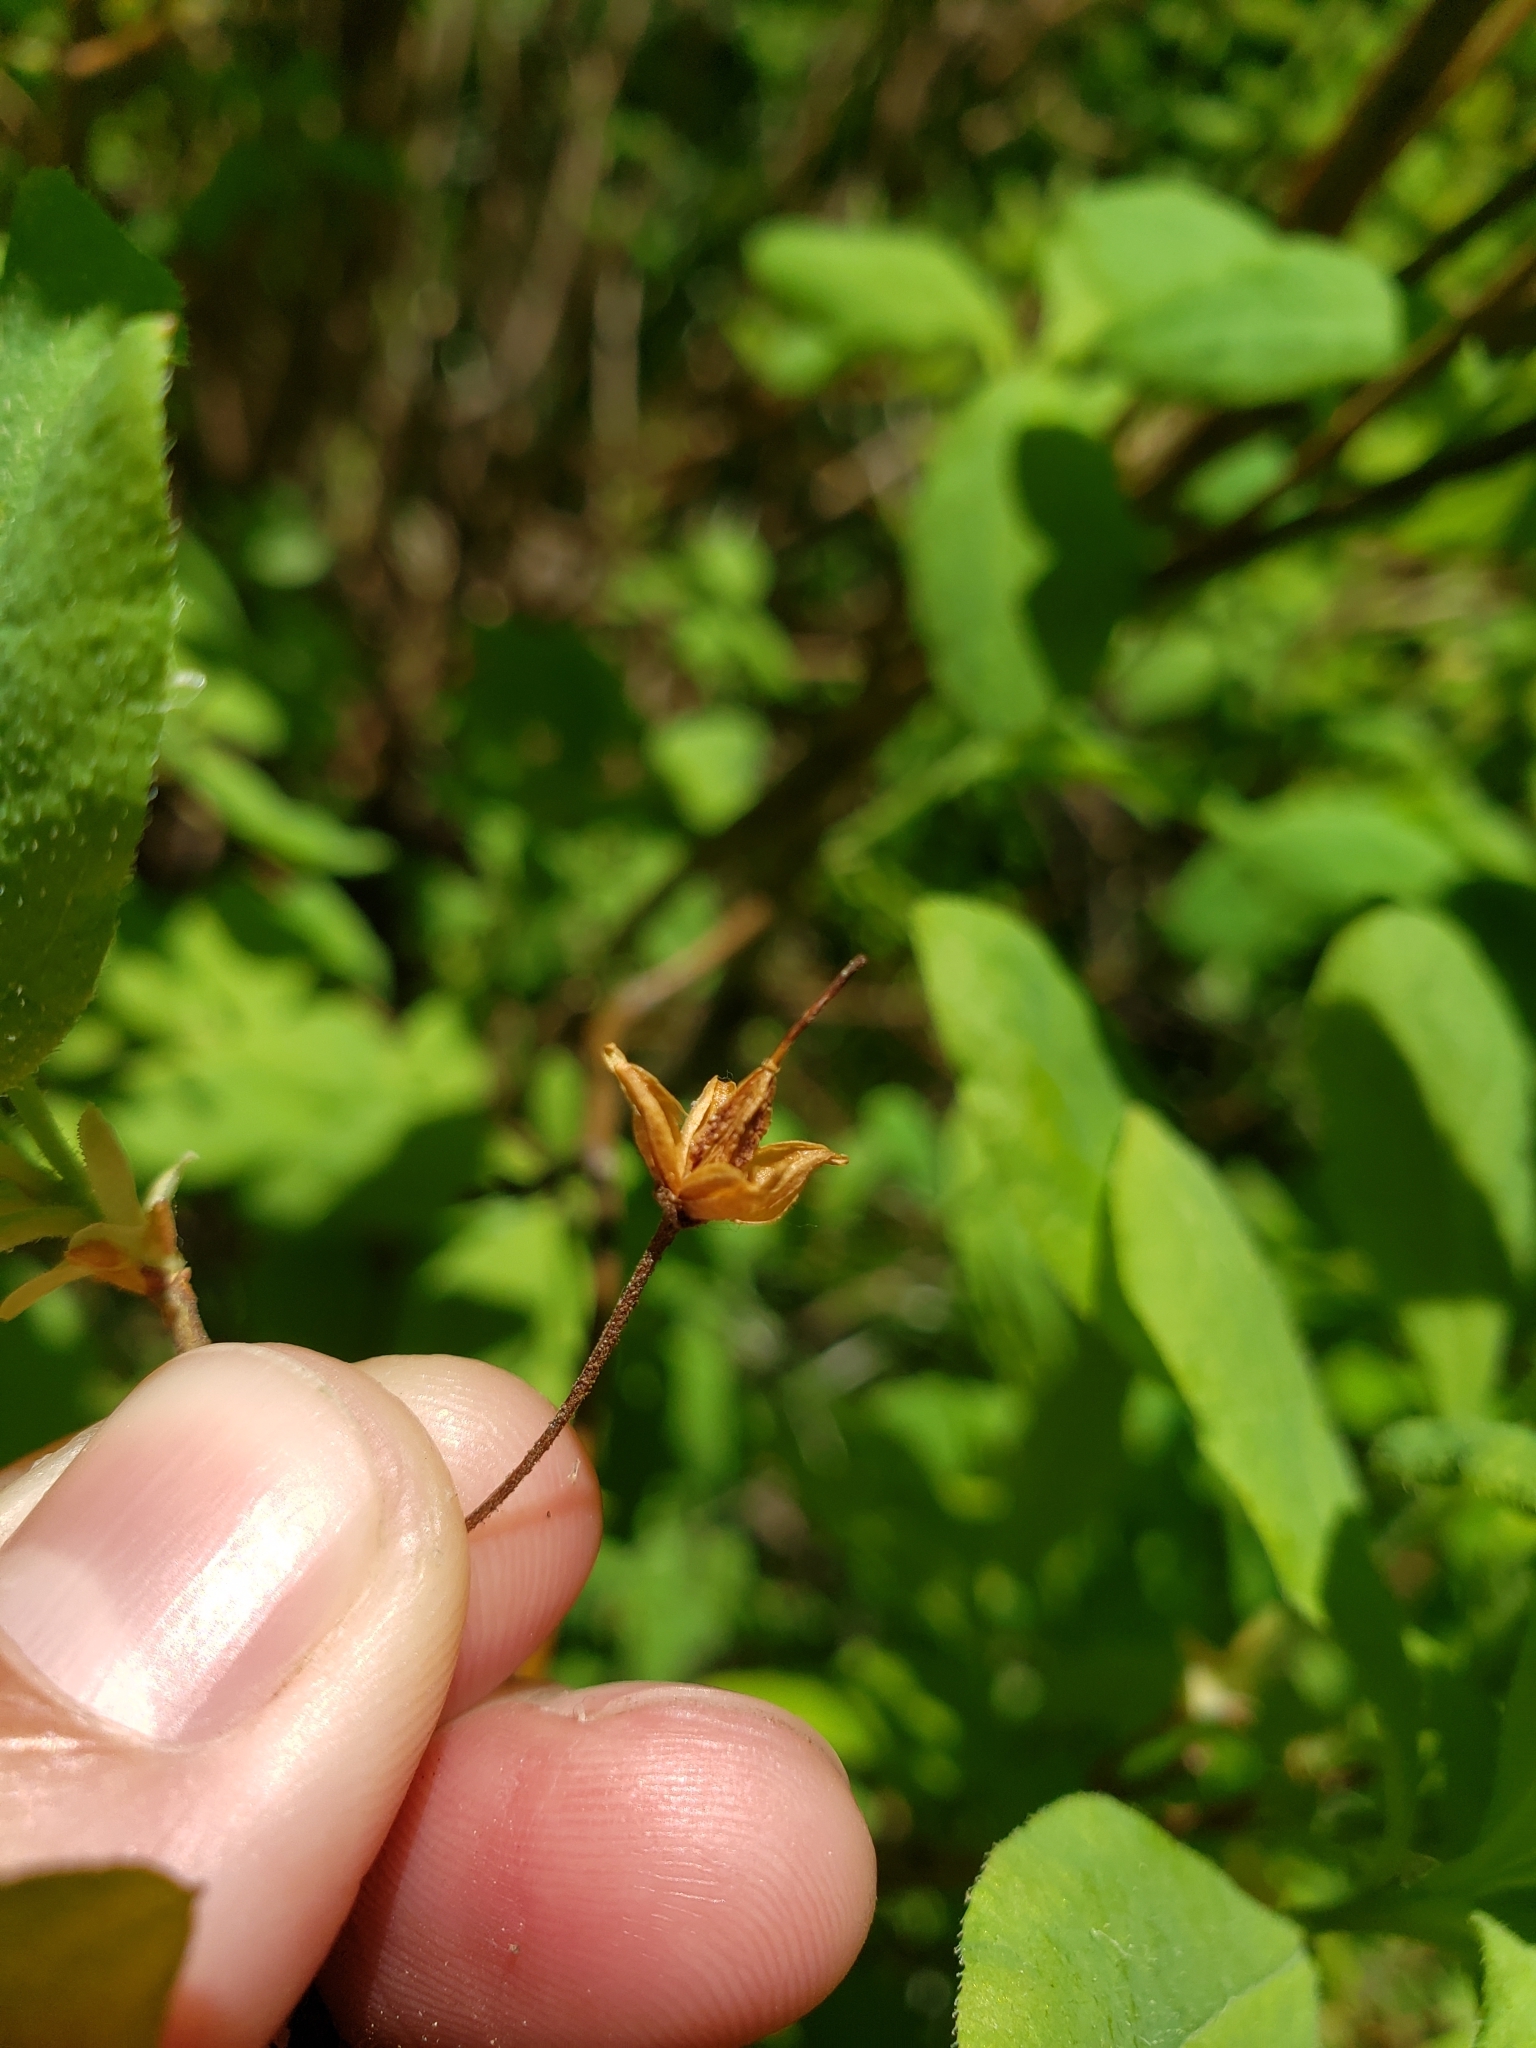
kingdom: Plantae
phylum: Tracheophyta
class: Magnoliopsida
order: Ericales
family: Ericaceae
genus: Rhododendron
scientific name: Rhododendron menziesii
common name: Pacific menziesia
